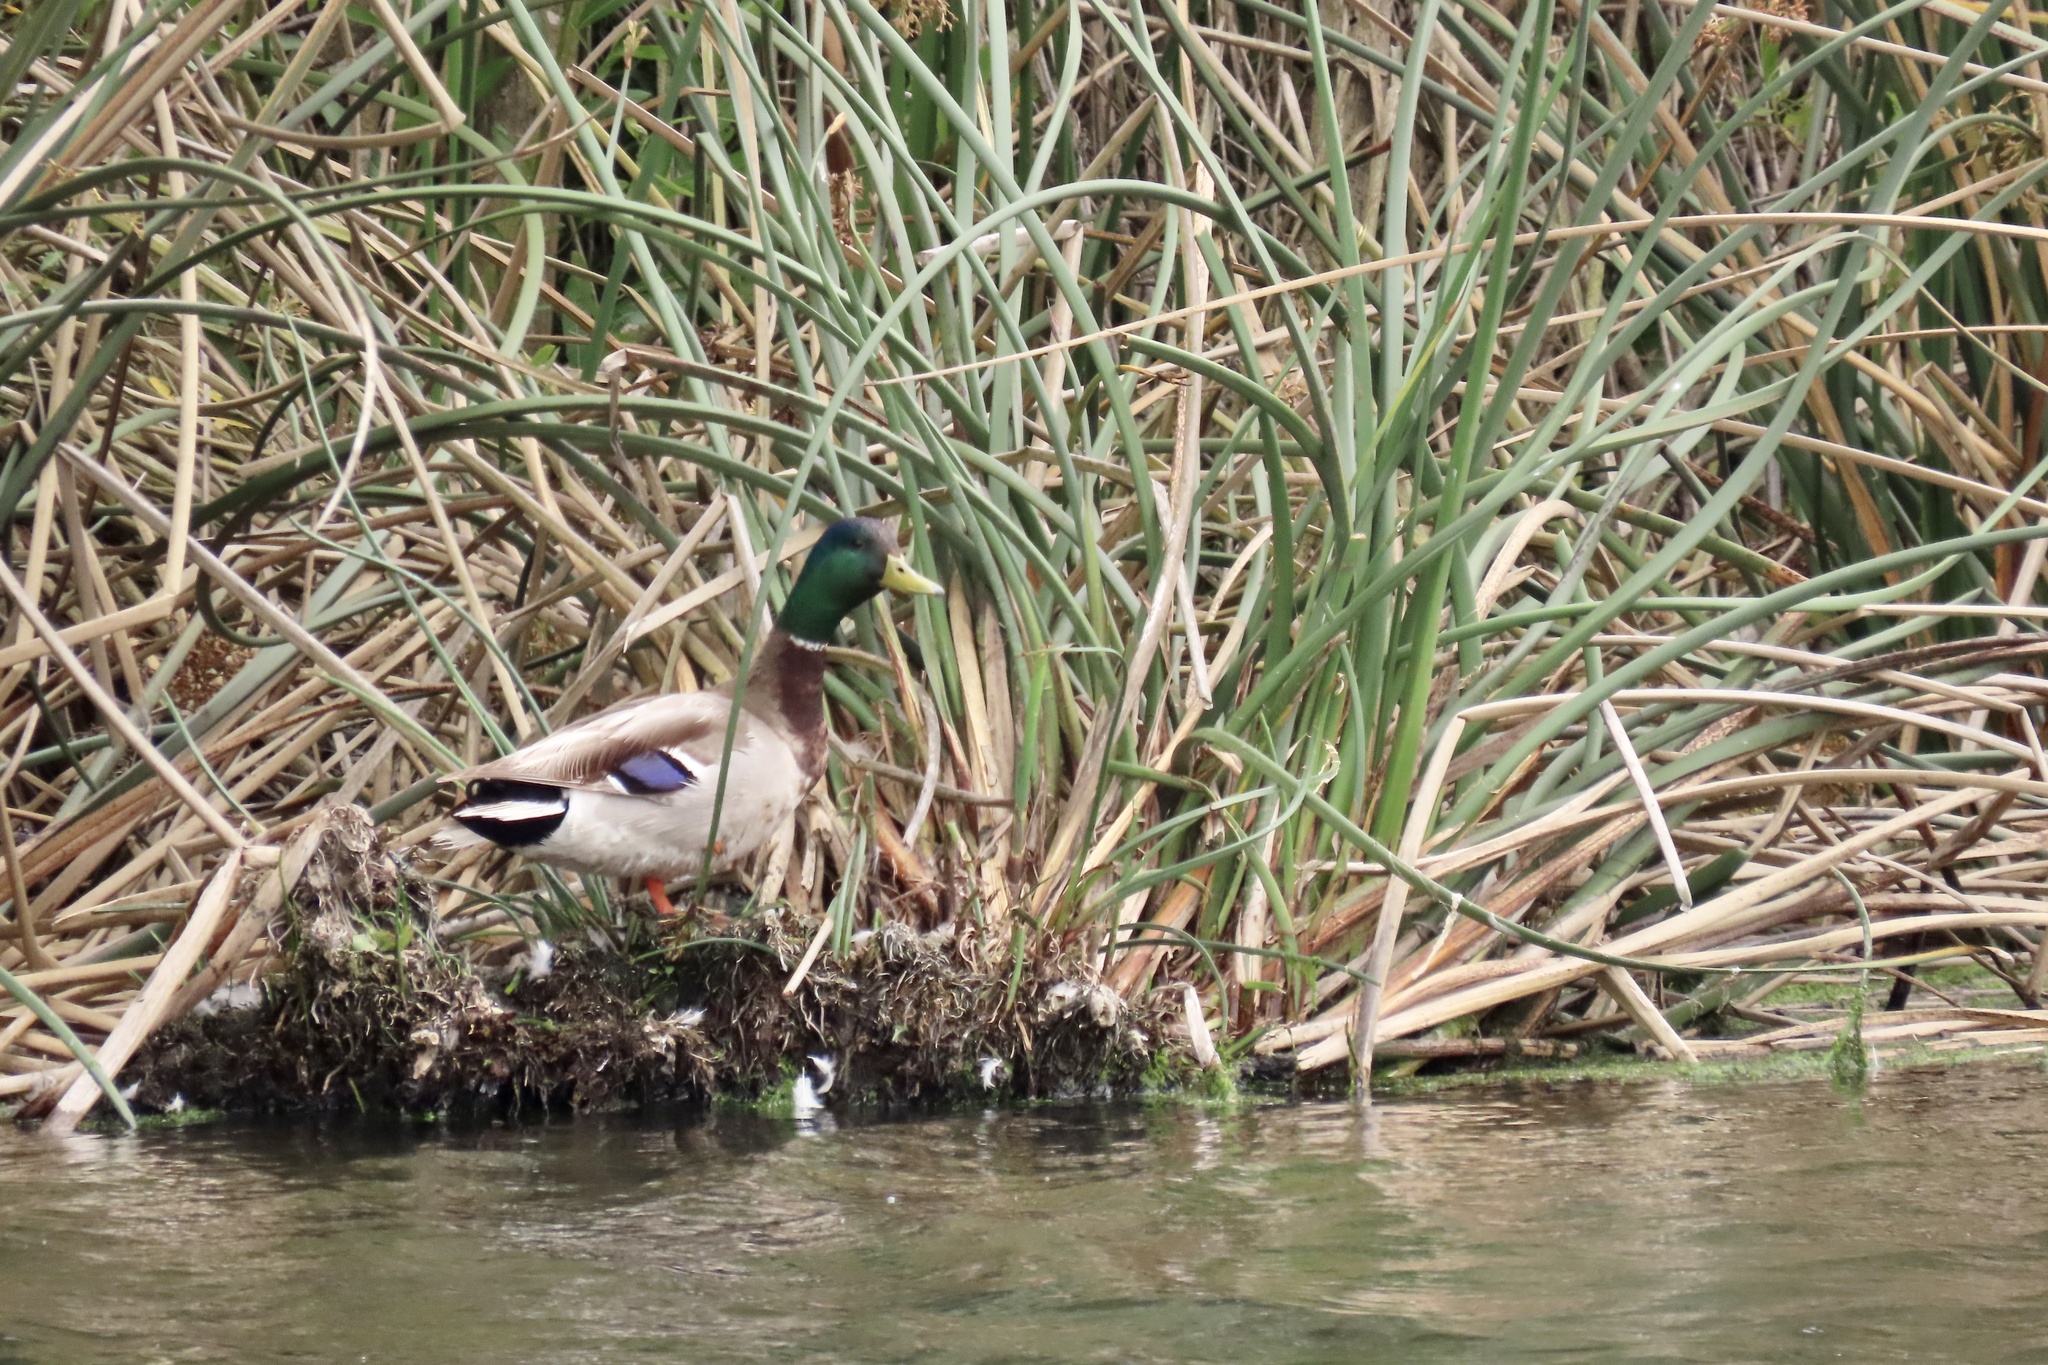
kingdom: Animalia
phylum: Chordata
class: Aves
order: Anseriformes
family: Anatidae
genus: Anas
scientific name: Anas platyrhynchos
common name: Mallard
